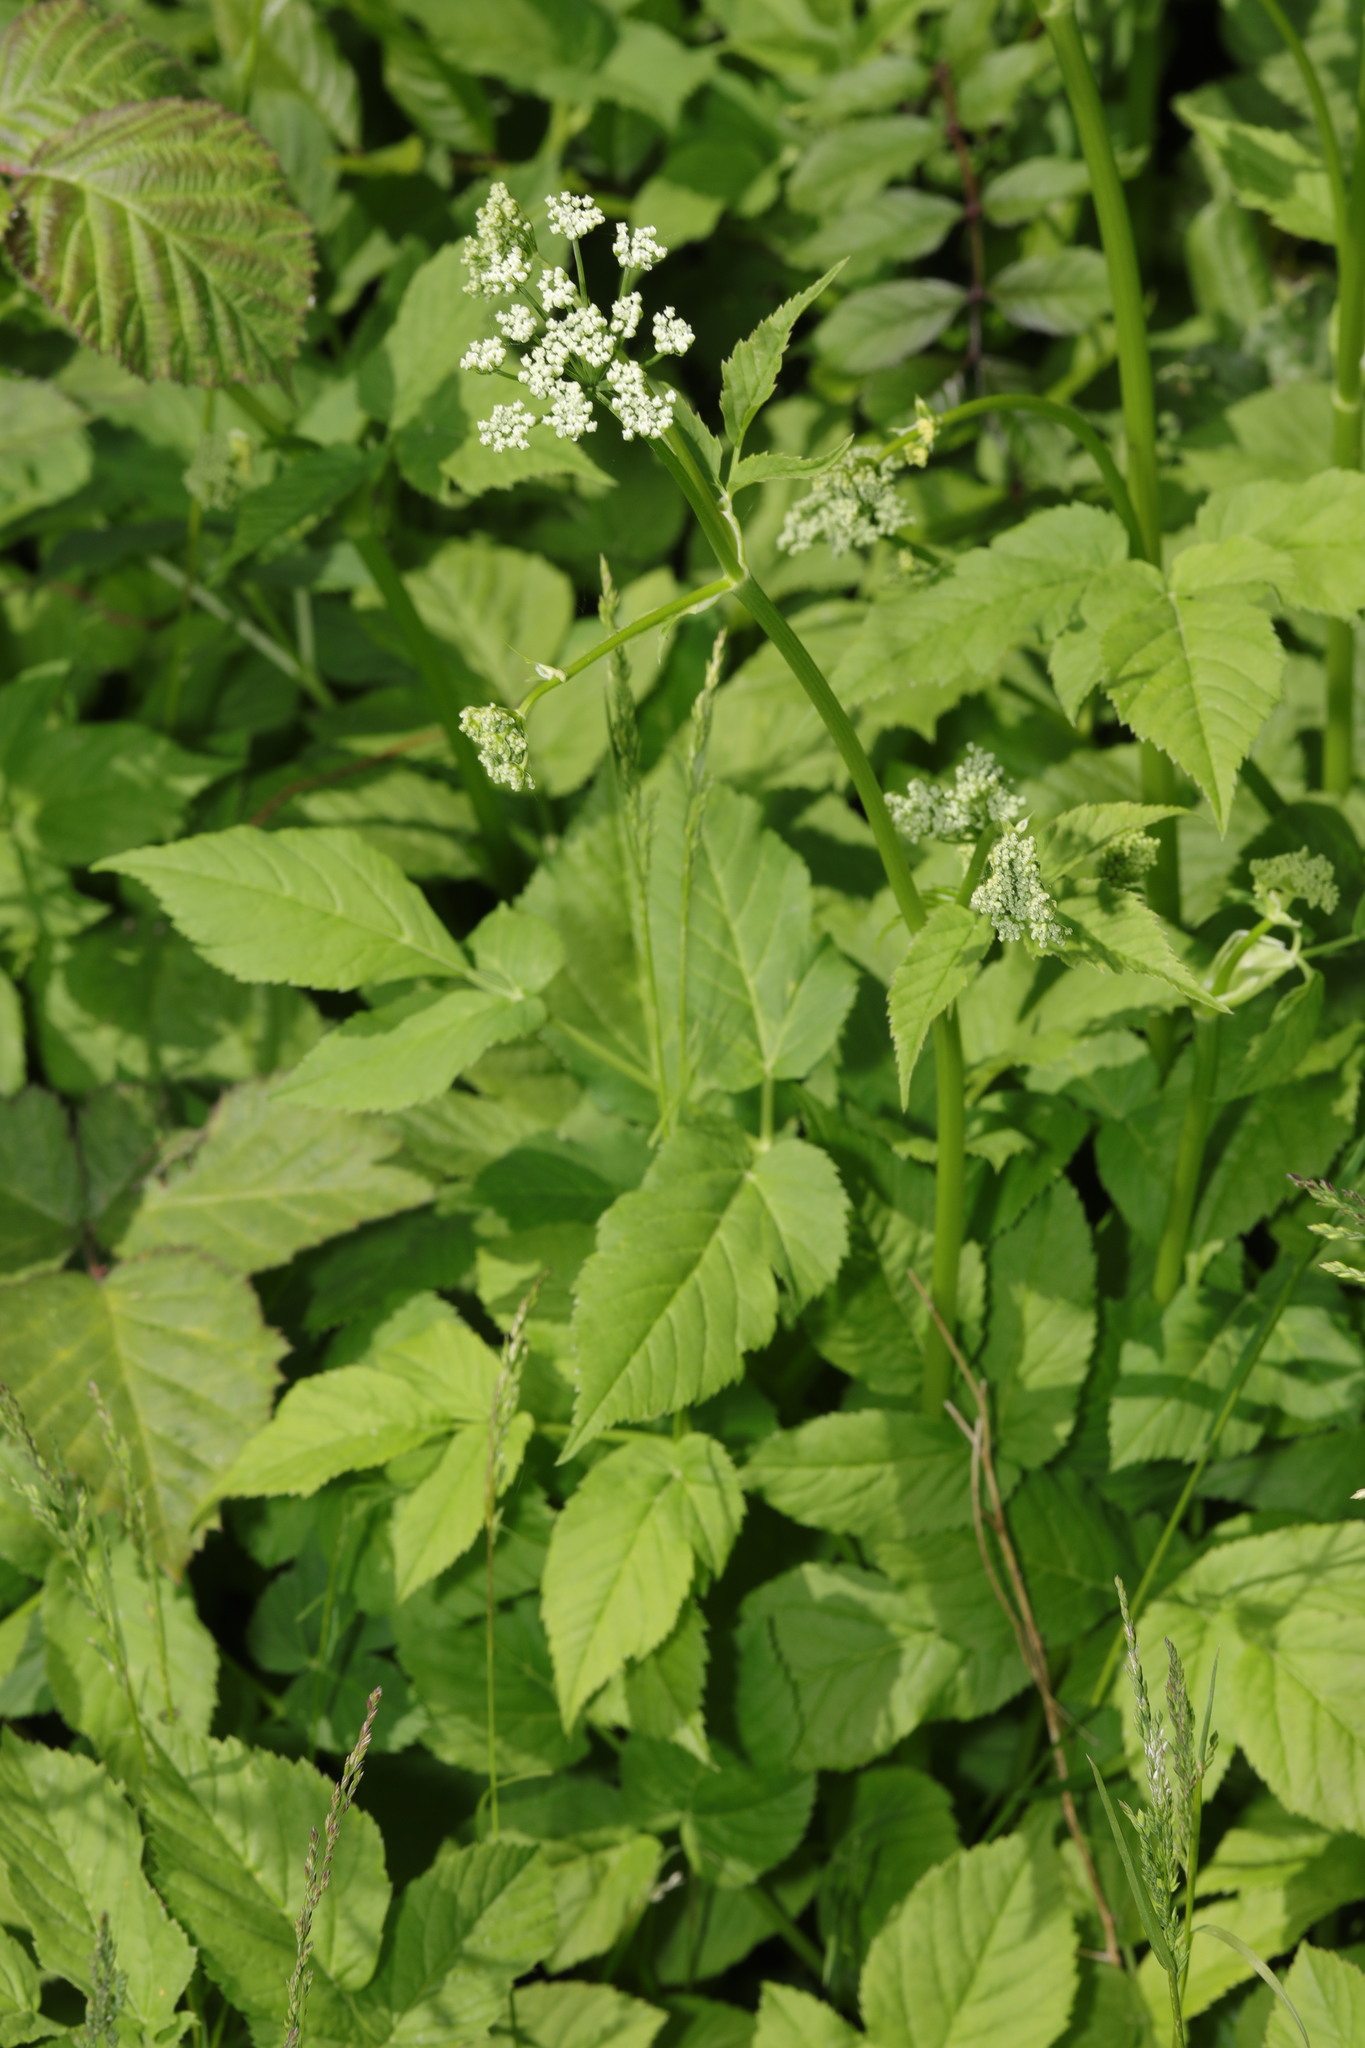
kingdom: Plantae
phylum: Tracheophyta
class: Magnoliopsida
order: Apiales
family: Apiaceae
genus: Aegopodium
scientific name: Aegopodium podagraria
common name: Ground-elder
